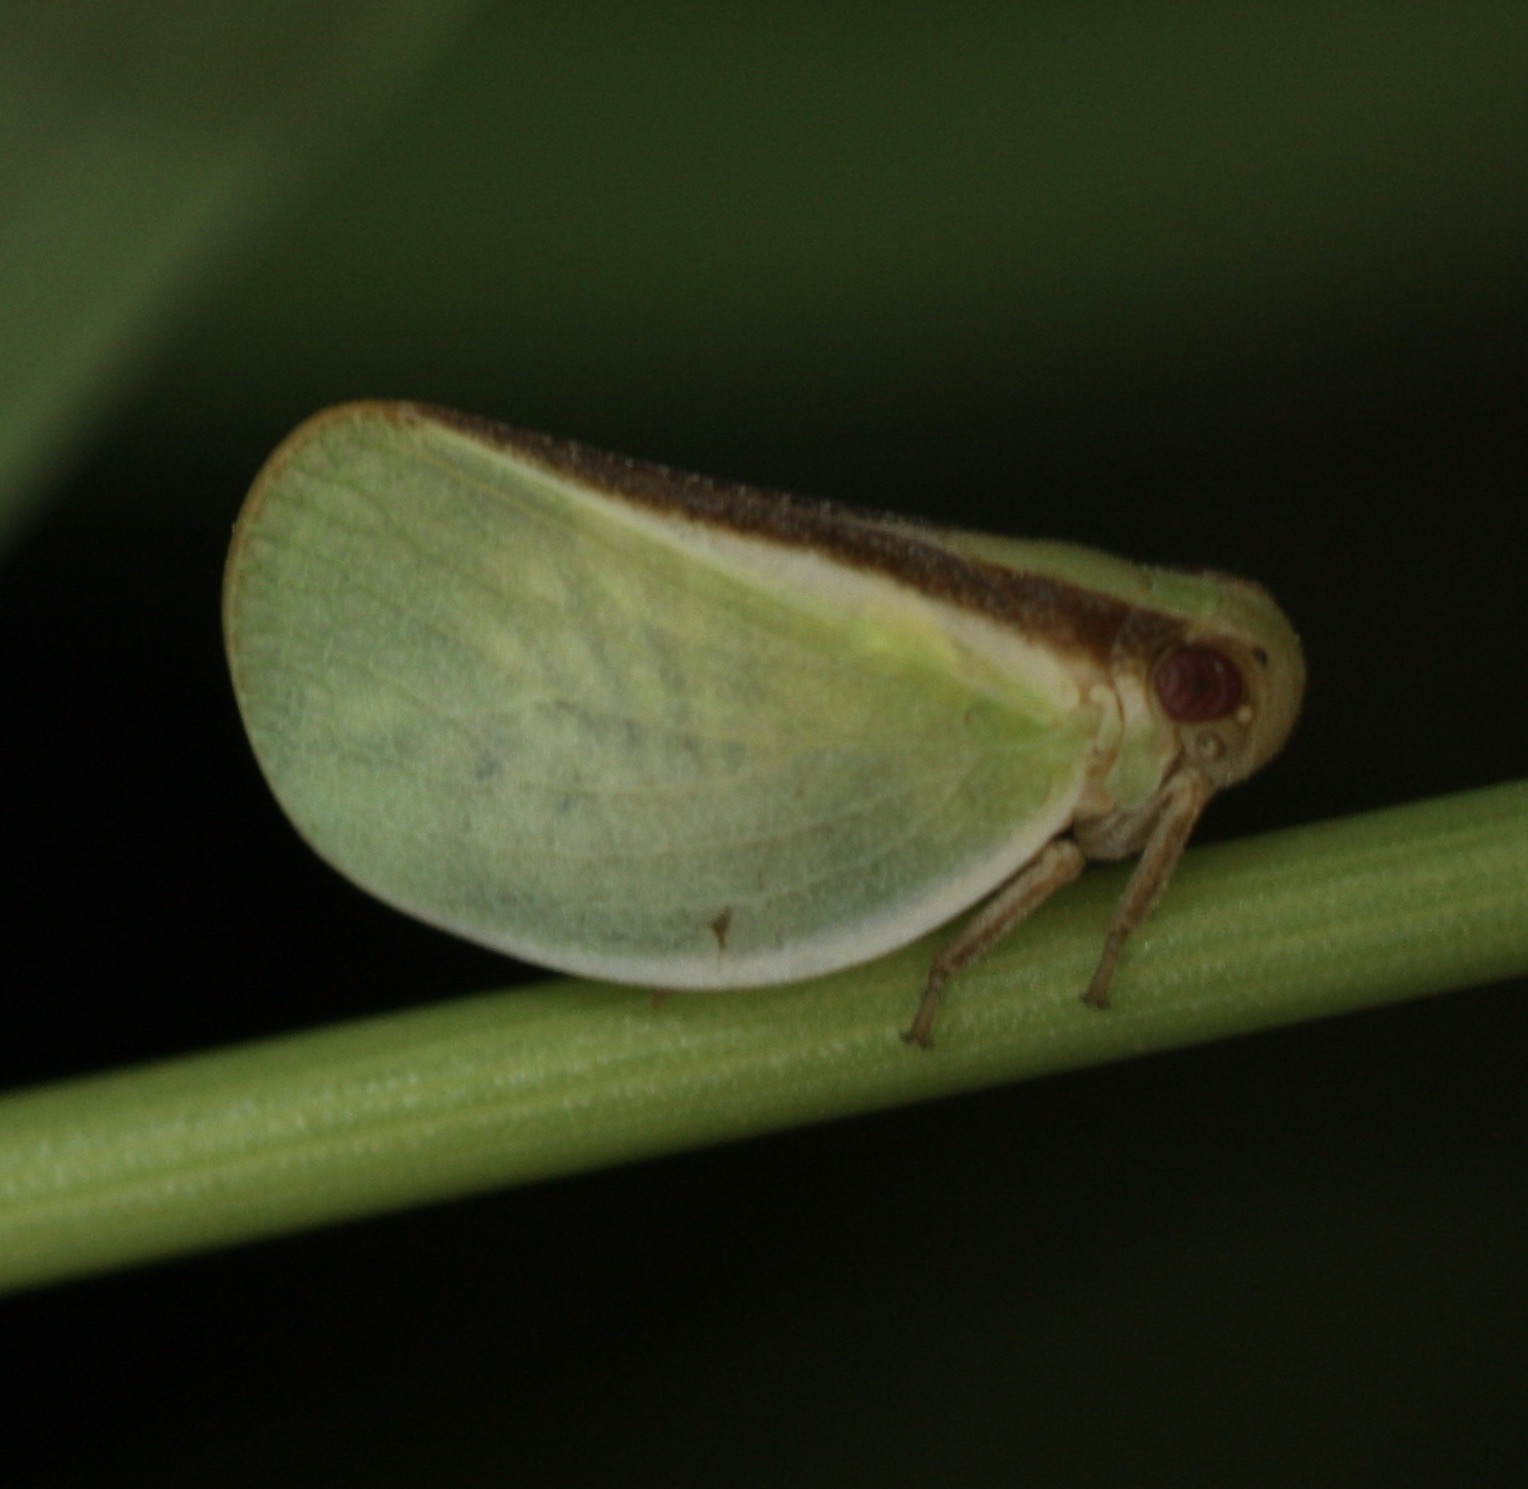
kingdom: Animalia
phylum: Arthropoda
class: Insecta
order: Hemiptera
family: Acanaloniidae
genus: Acanalonia
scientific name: Acanalonia fasciata
